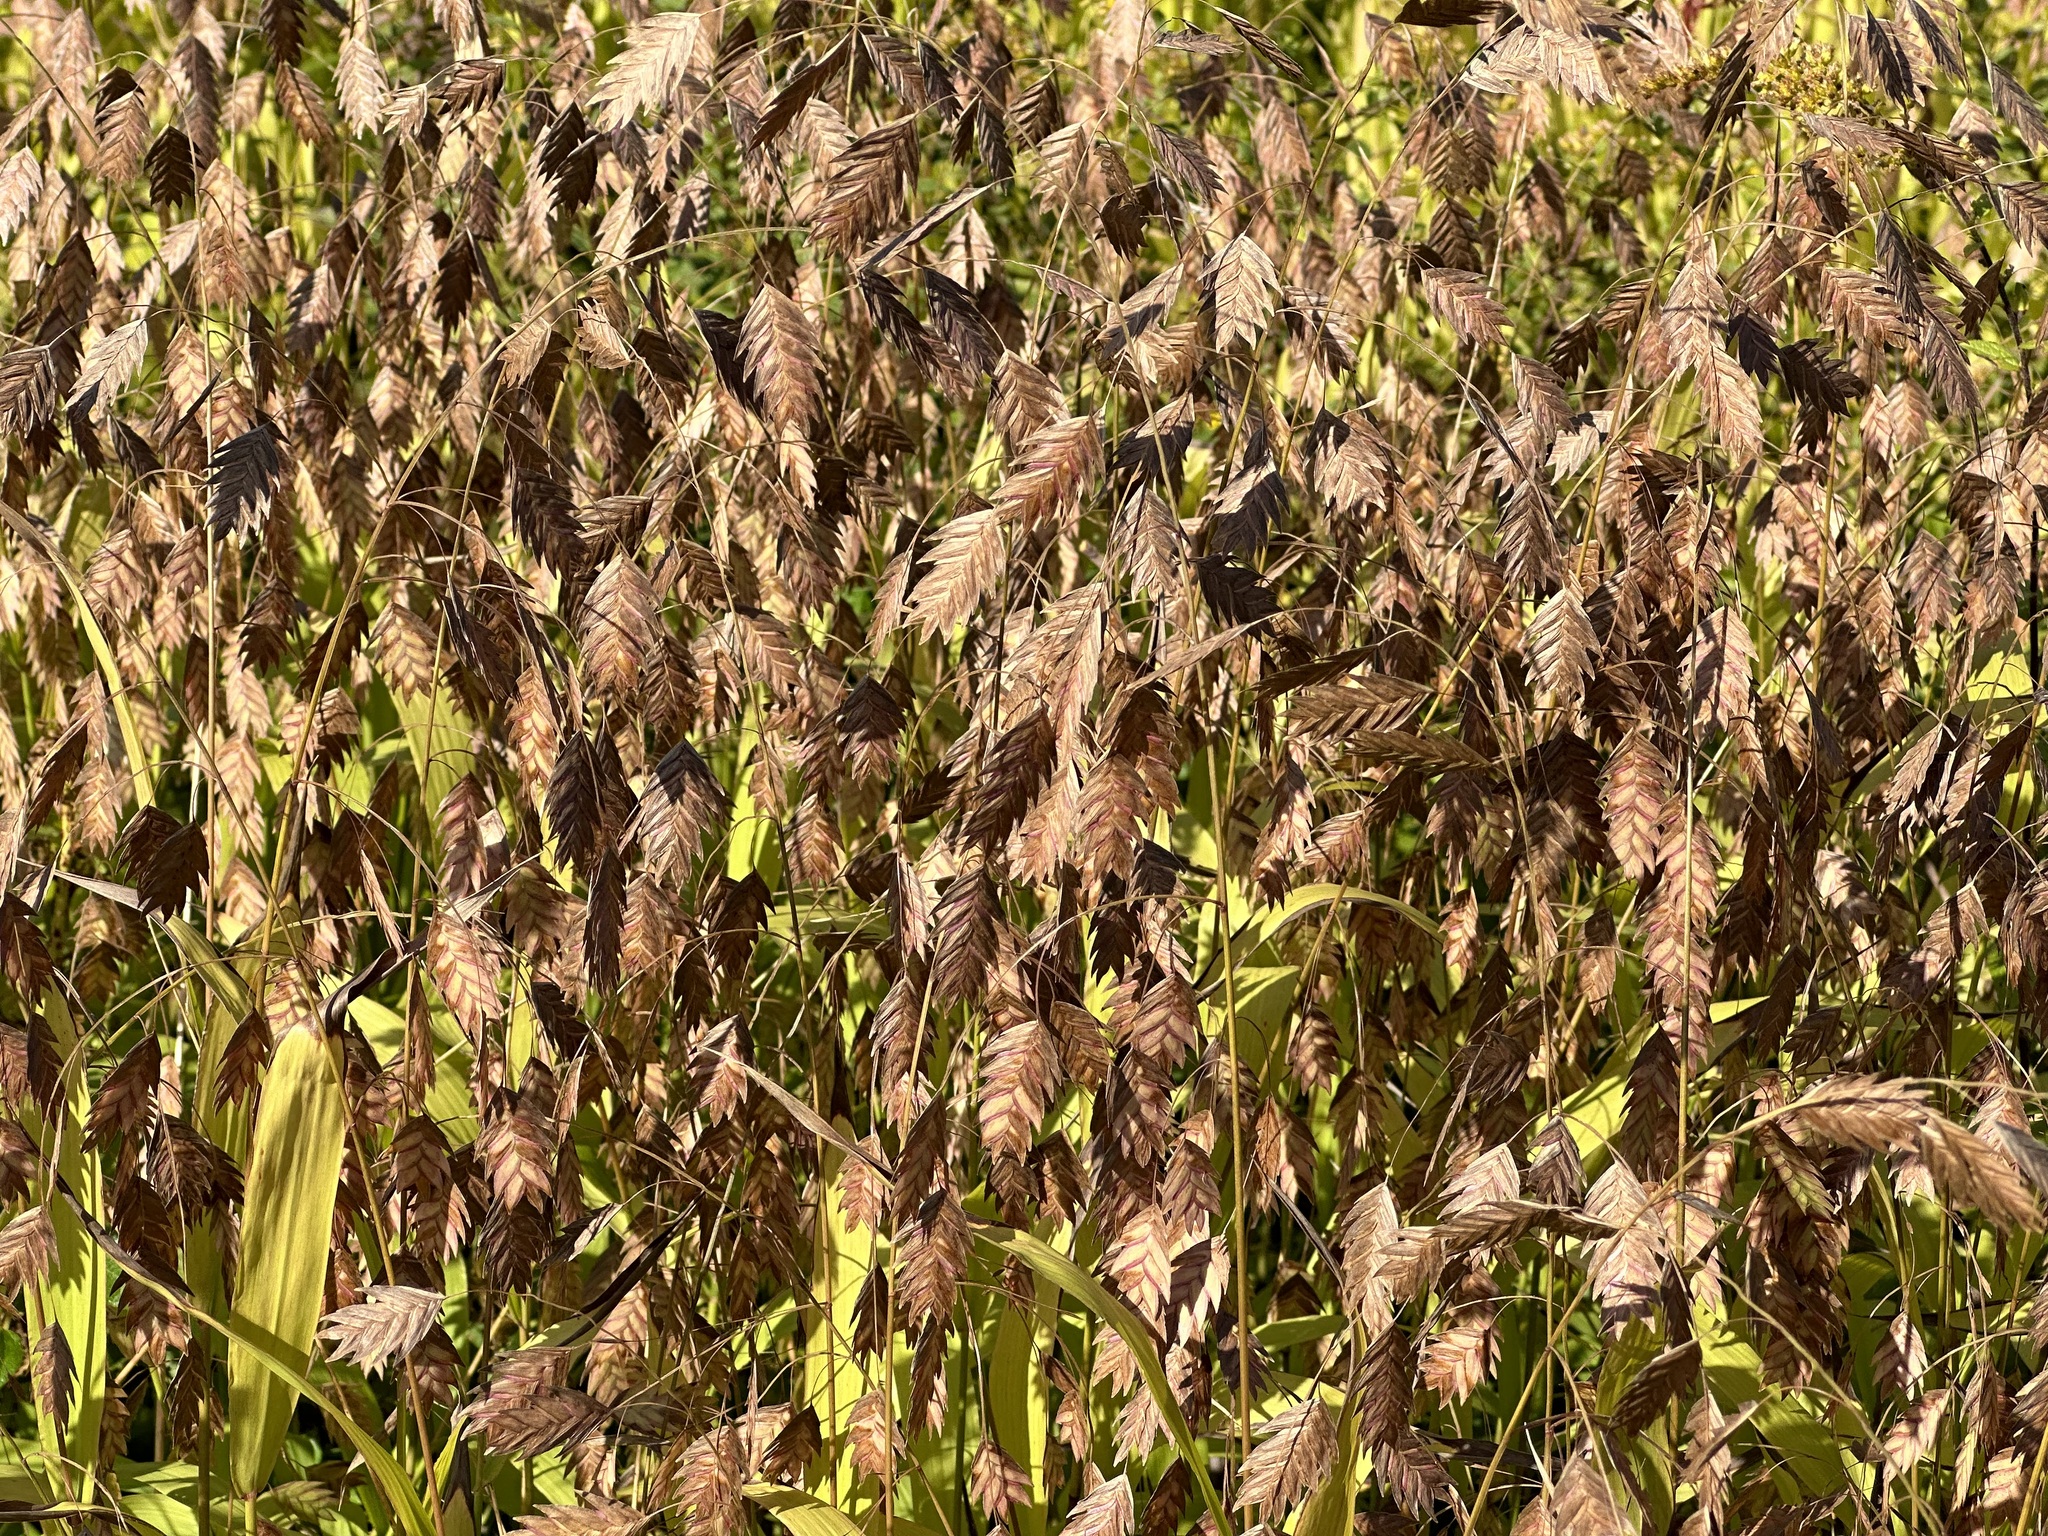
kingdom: Plantae
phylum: Tracheophyta
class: Liliopsida
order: Poales
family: Poaceae
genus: Chasmanthium
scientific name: Chasmanthium latifolium
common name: Broad-leaved chasmanthium
